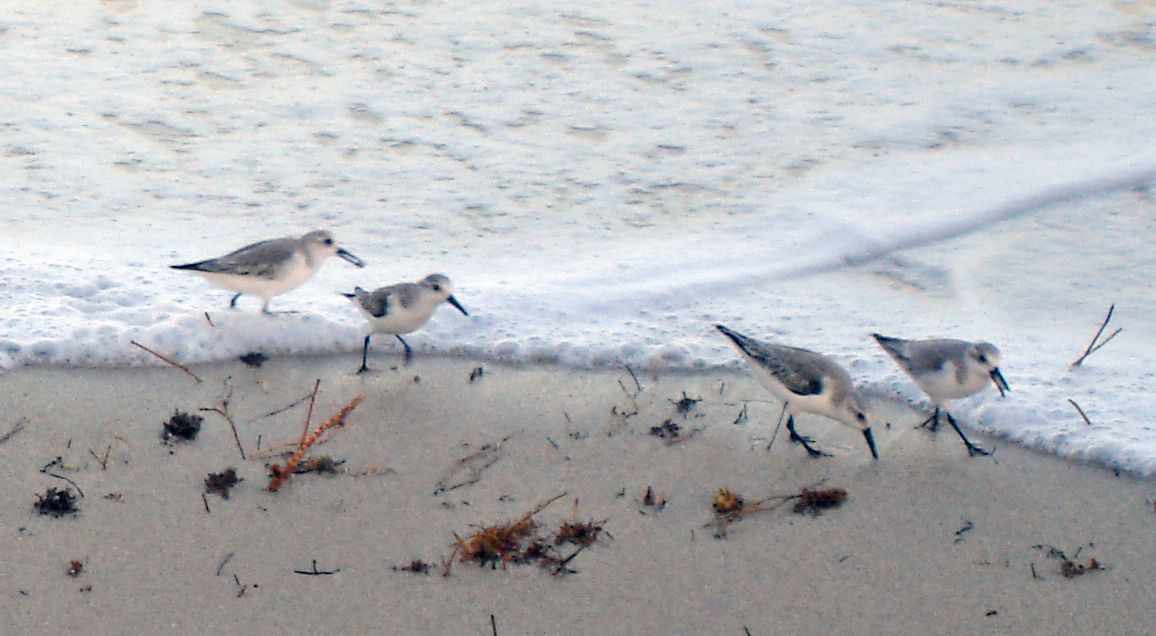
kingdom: Animalia
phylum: Chordata
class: Aves
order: Charadriiformes
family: Scolopacidae
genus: Calidris
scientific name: Calidris alba
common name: Sanderling
